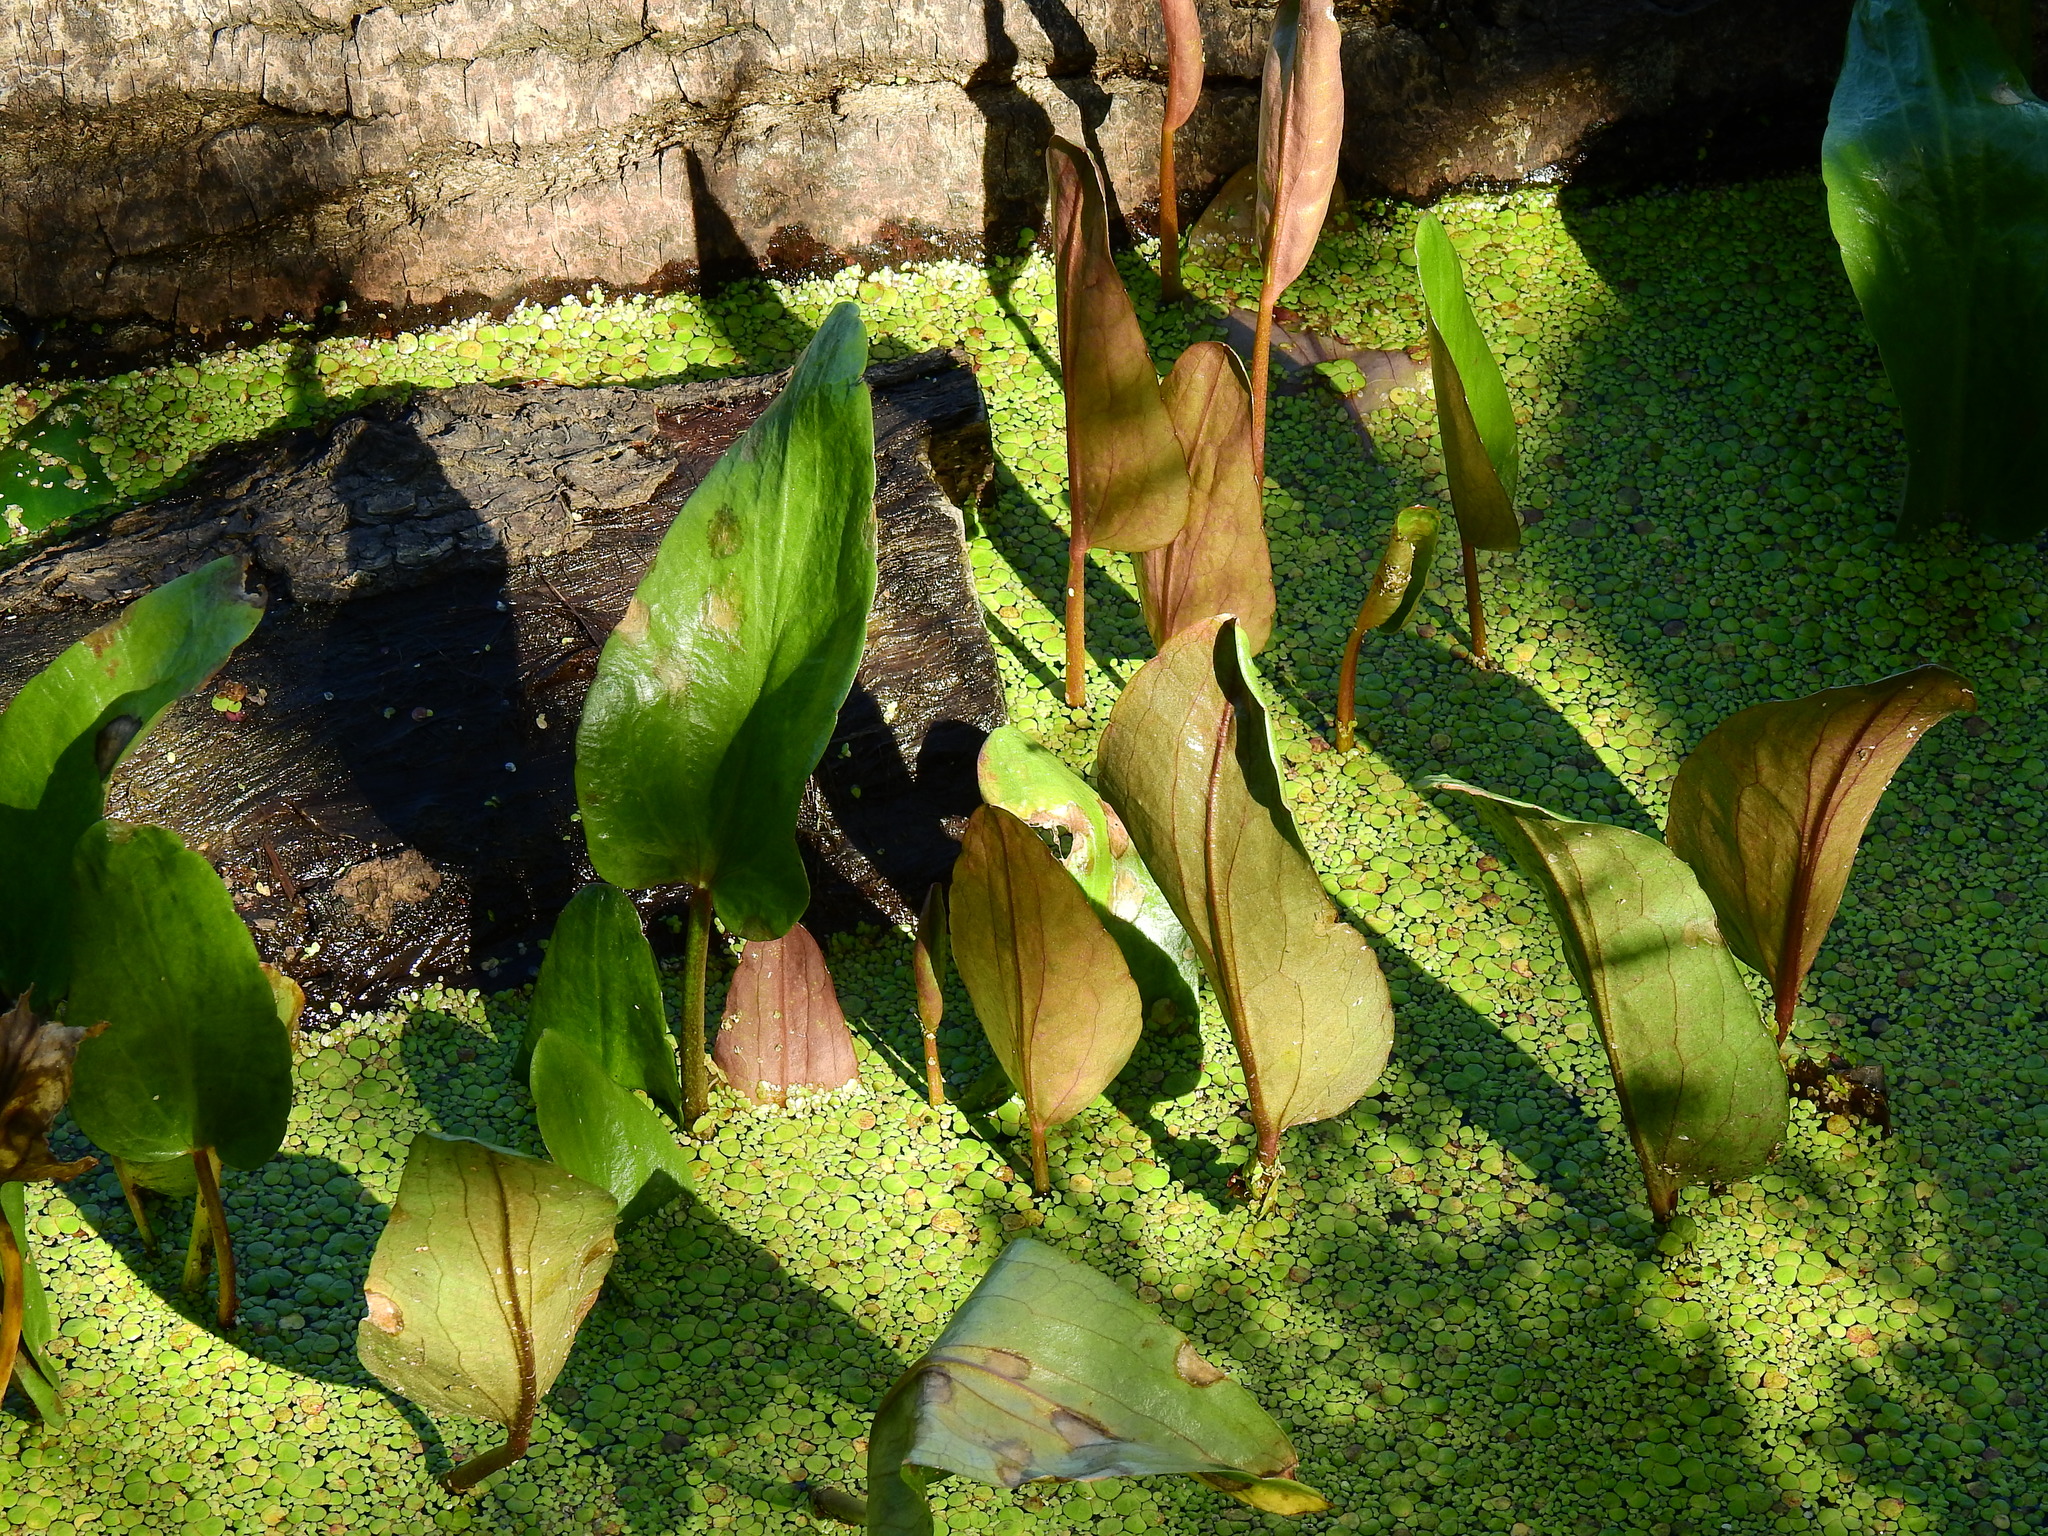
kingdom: Plantae
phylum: Tracheophyta
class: Liliopsida
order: Commelinales
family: Pontederiaceae
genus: Pontederia
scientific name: Pontederia cordata
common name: Pickerelweed
